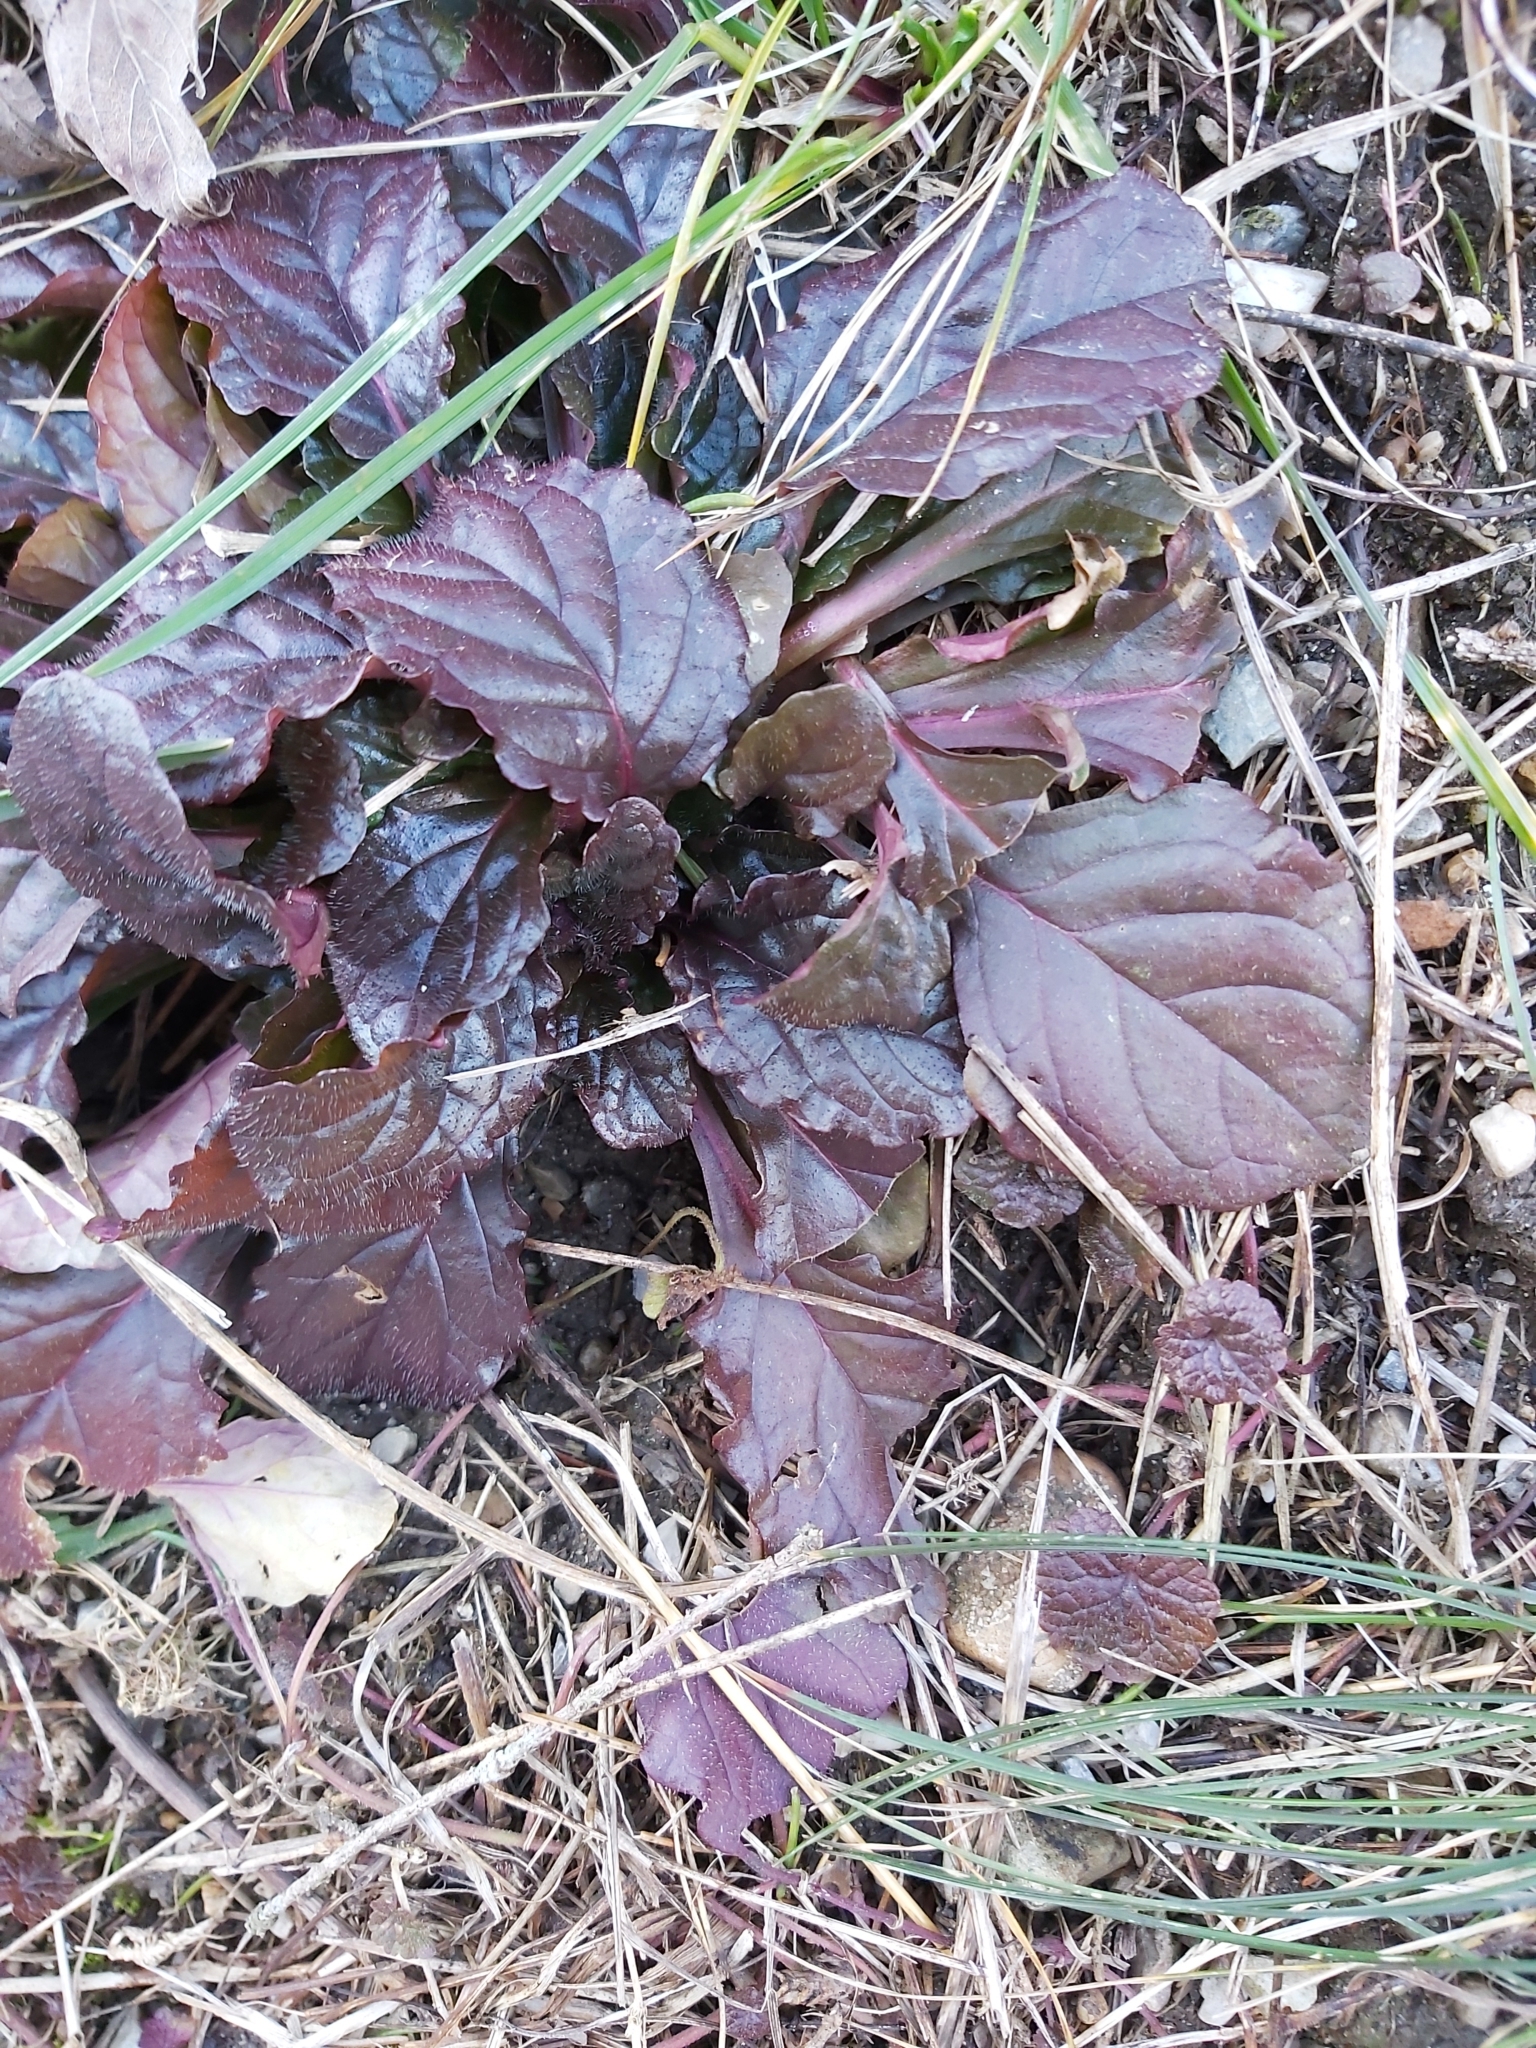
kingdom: Plantae
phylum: Tracheophyta
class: Magnoliopsida
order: Lamiales
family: Lamiaceae
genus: Ajuga
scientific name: Ajuga reptans
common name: Bugle
